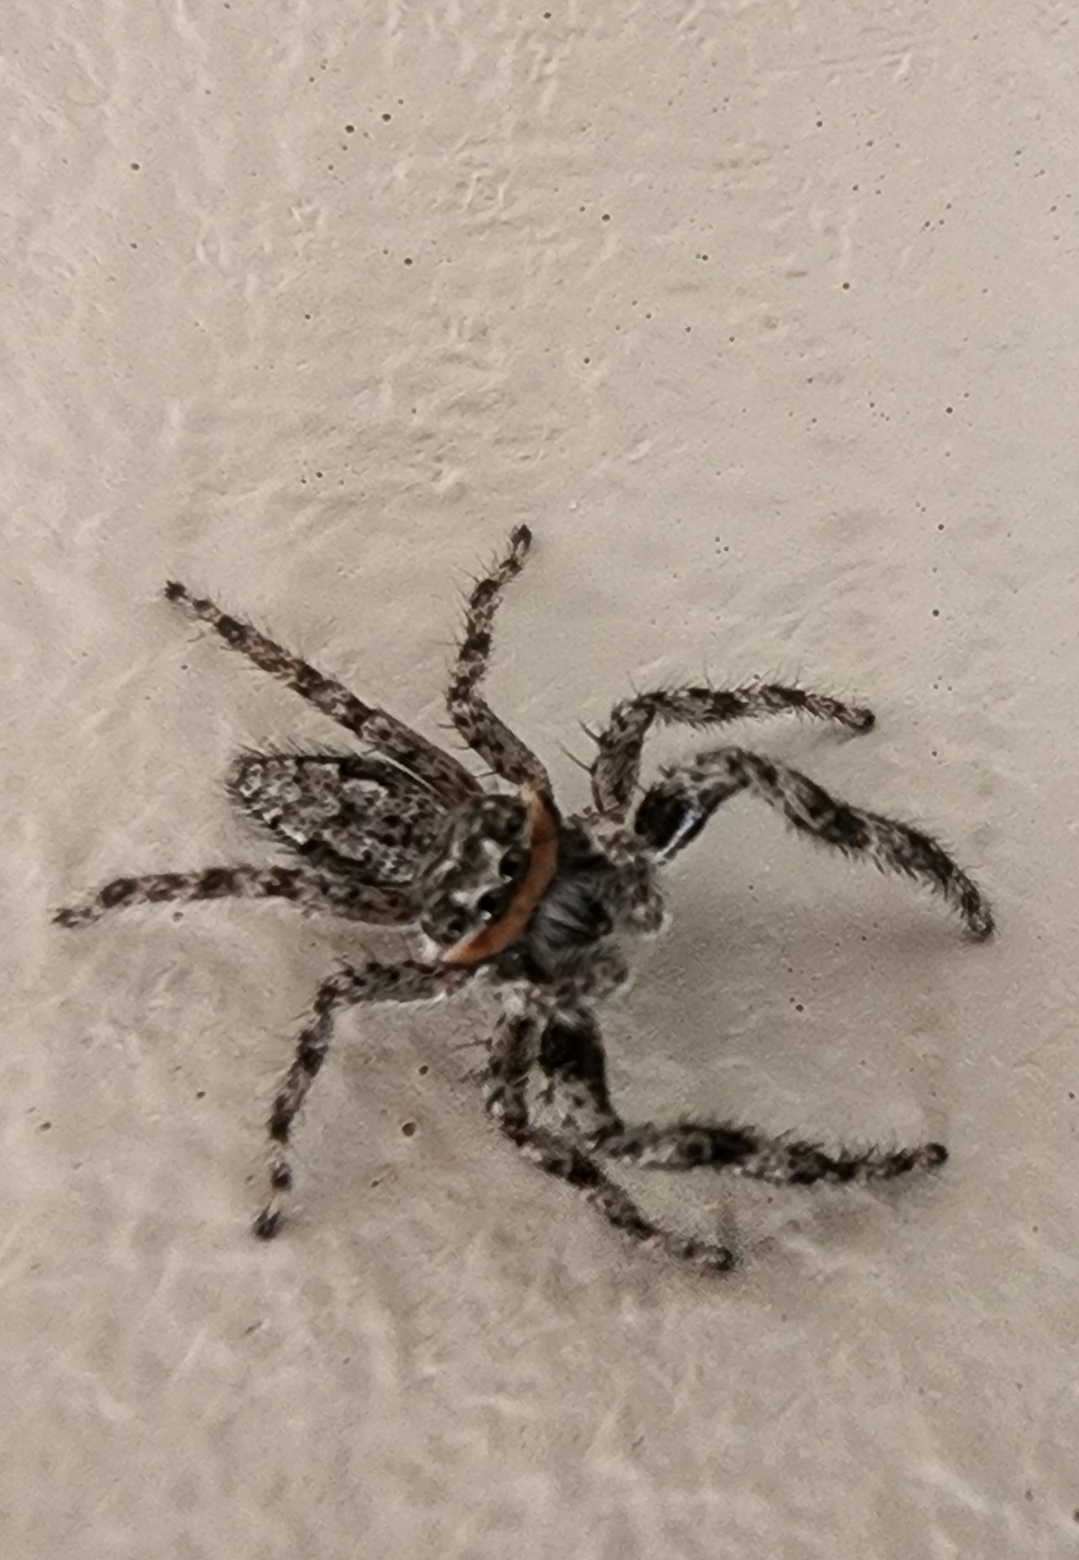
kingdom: Animalia
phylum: Arthropoda
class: Arachnida
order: Araneae
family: Salticidae
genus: Platycryptus
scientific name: Platycryptus undatus
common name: Tan jumping spider
